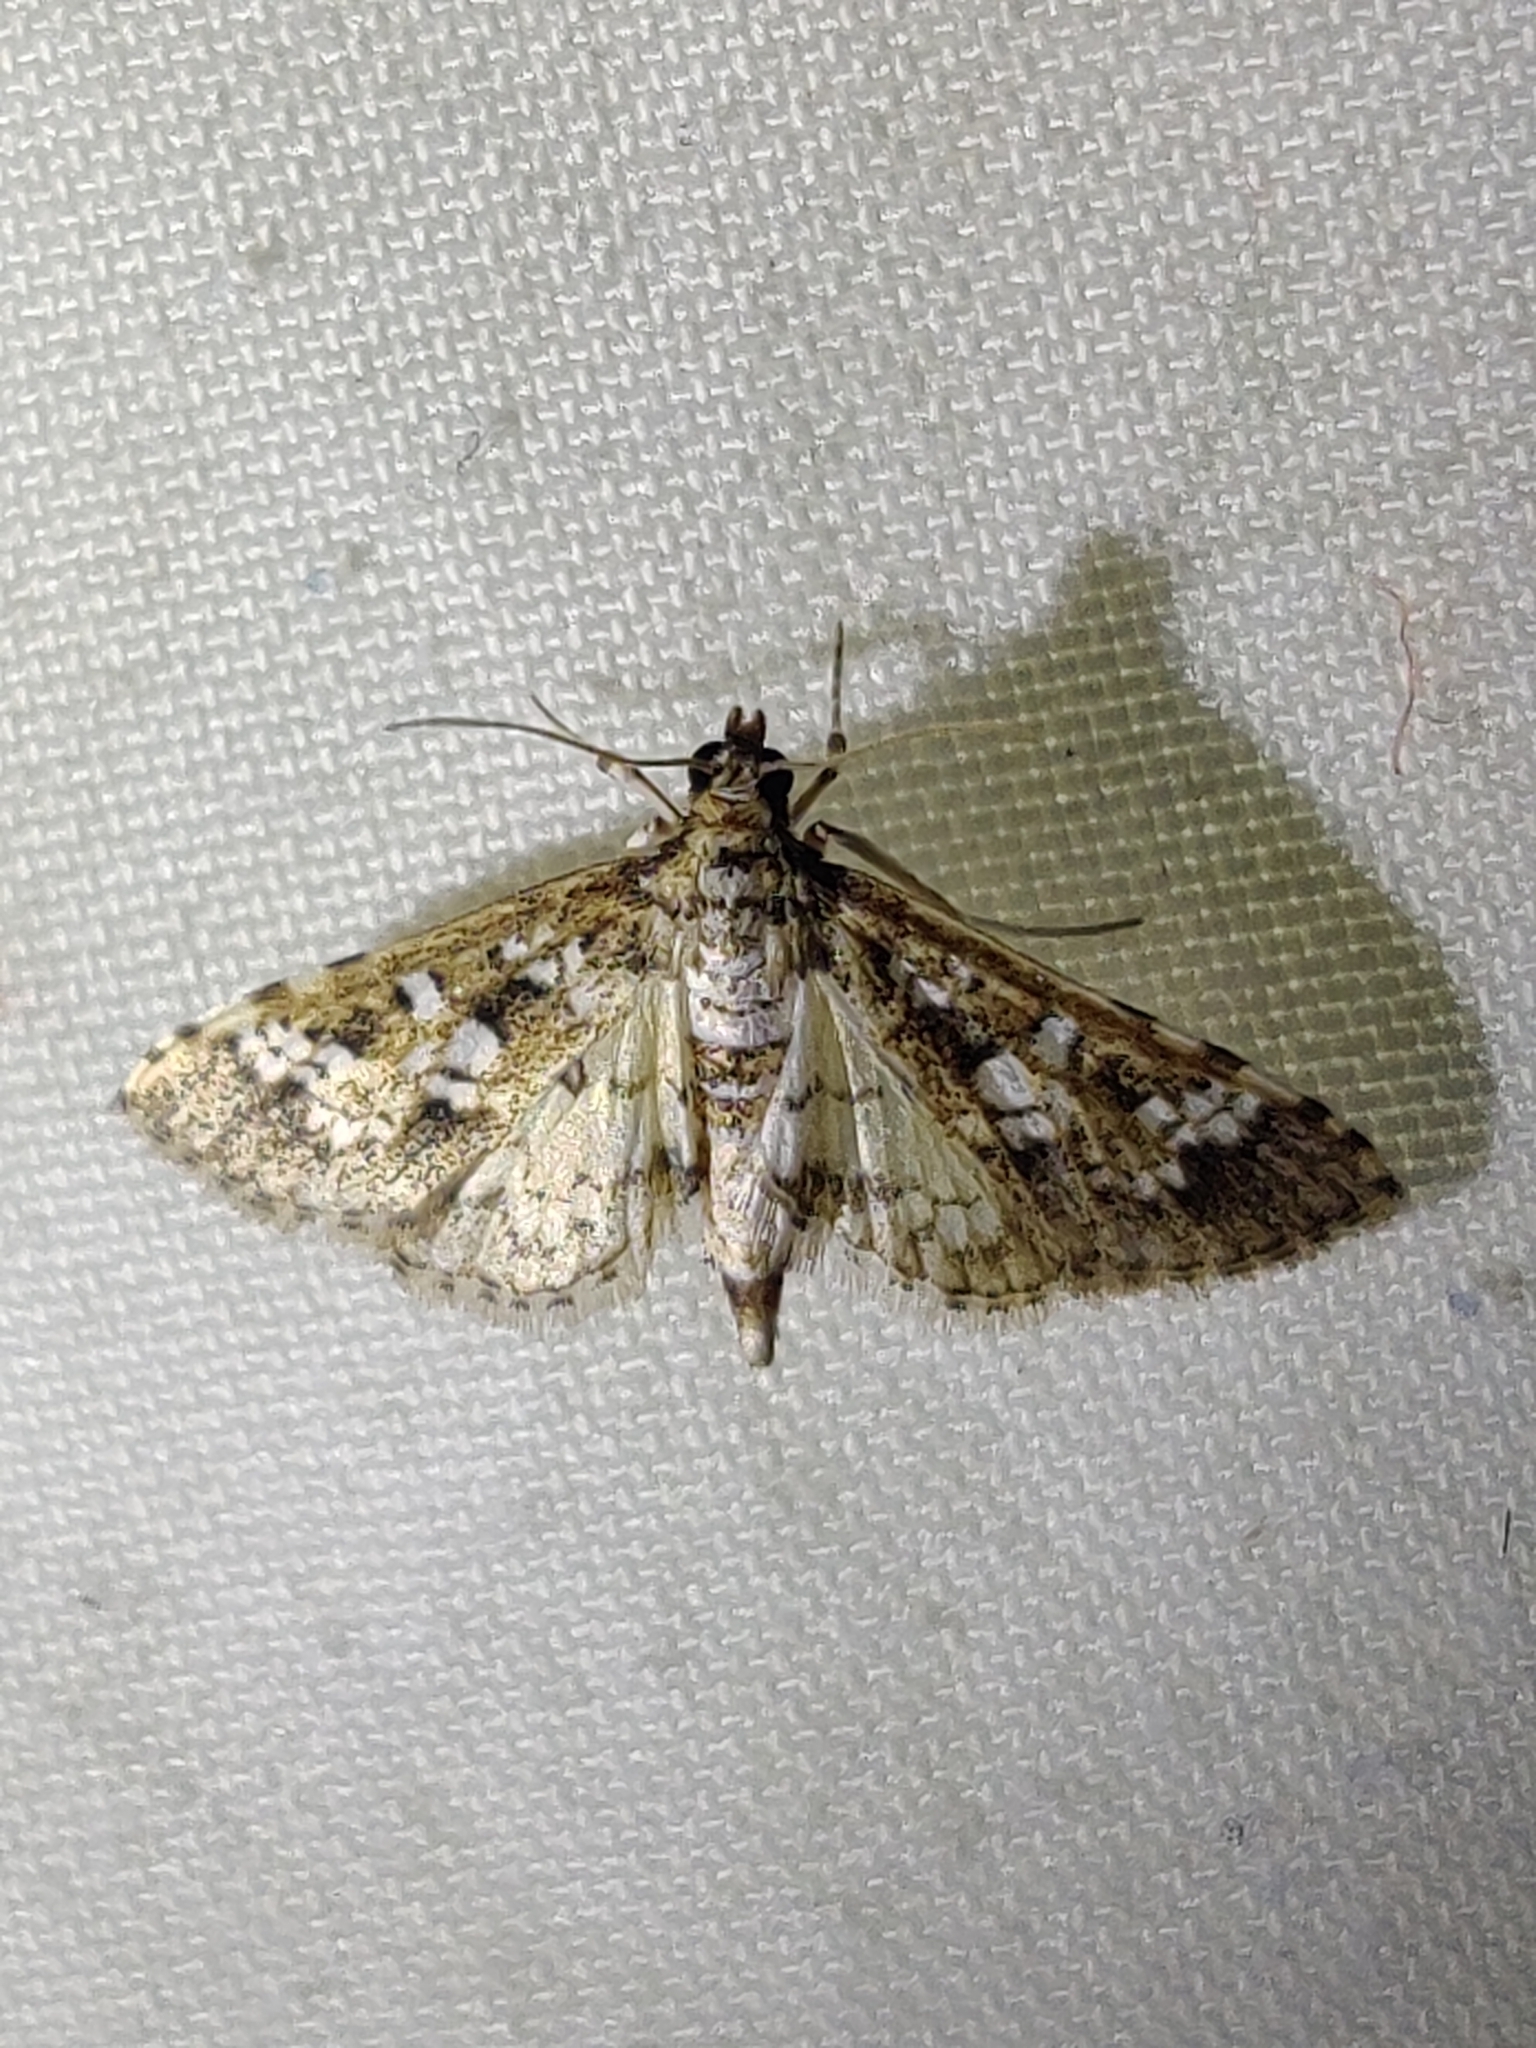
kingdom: Animalia
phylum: Arthropoda
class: Insecta
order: Lepidoptera
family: Crambidae
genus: Samea
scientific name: Samea baccatalis
